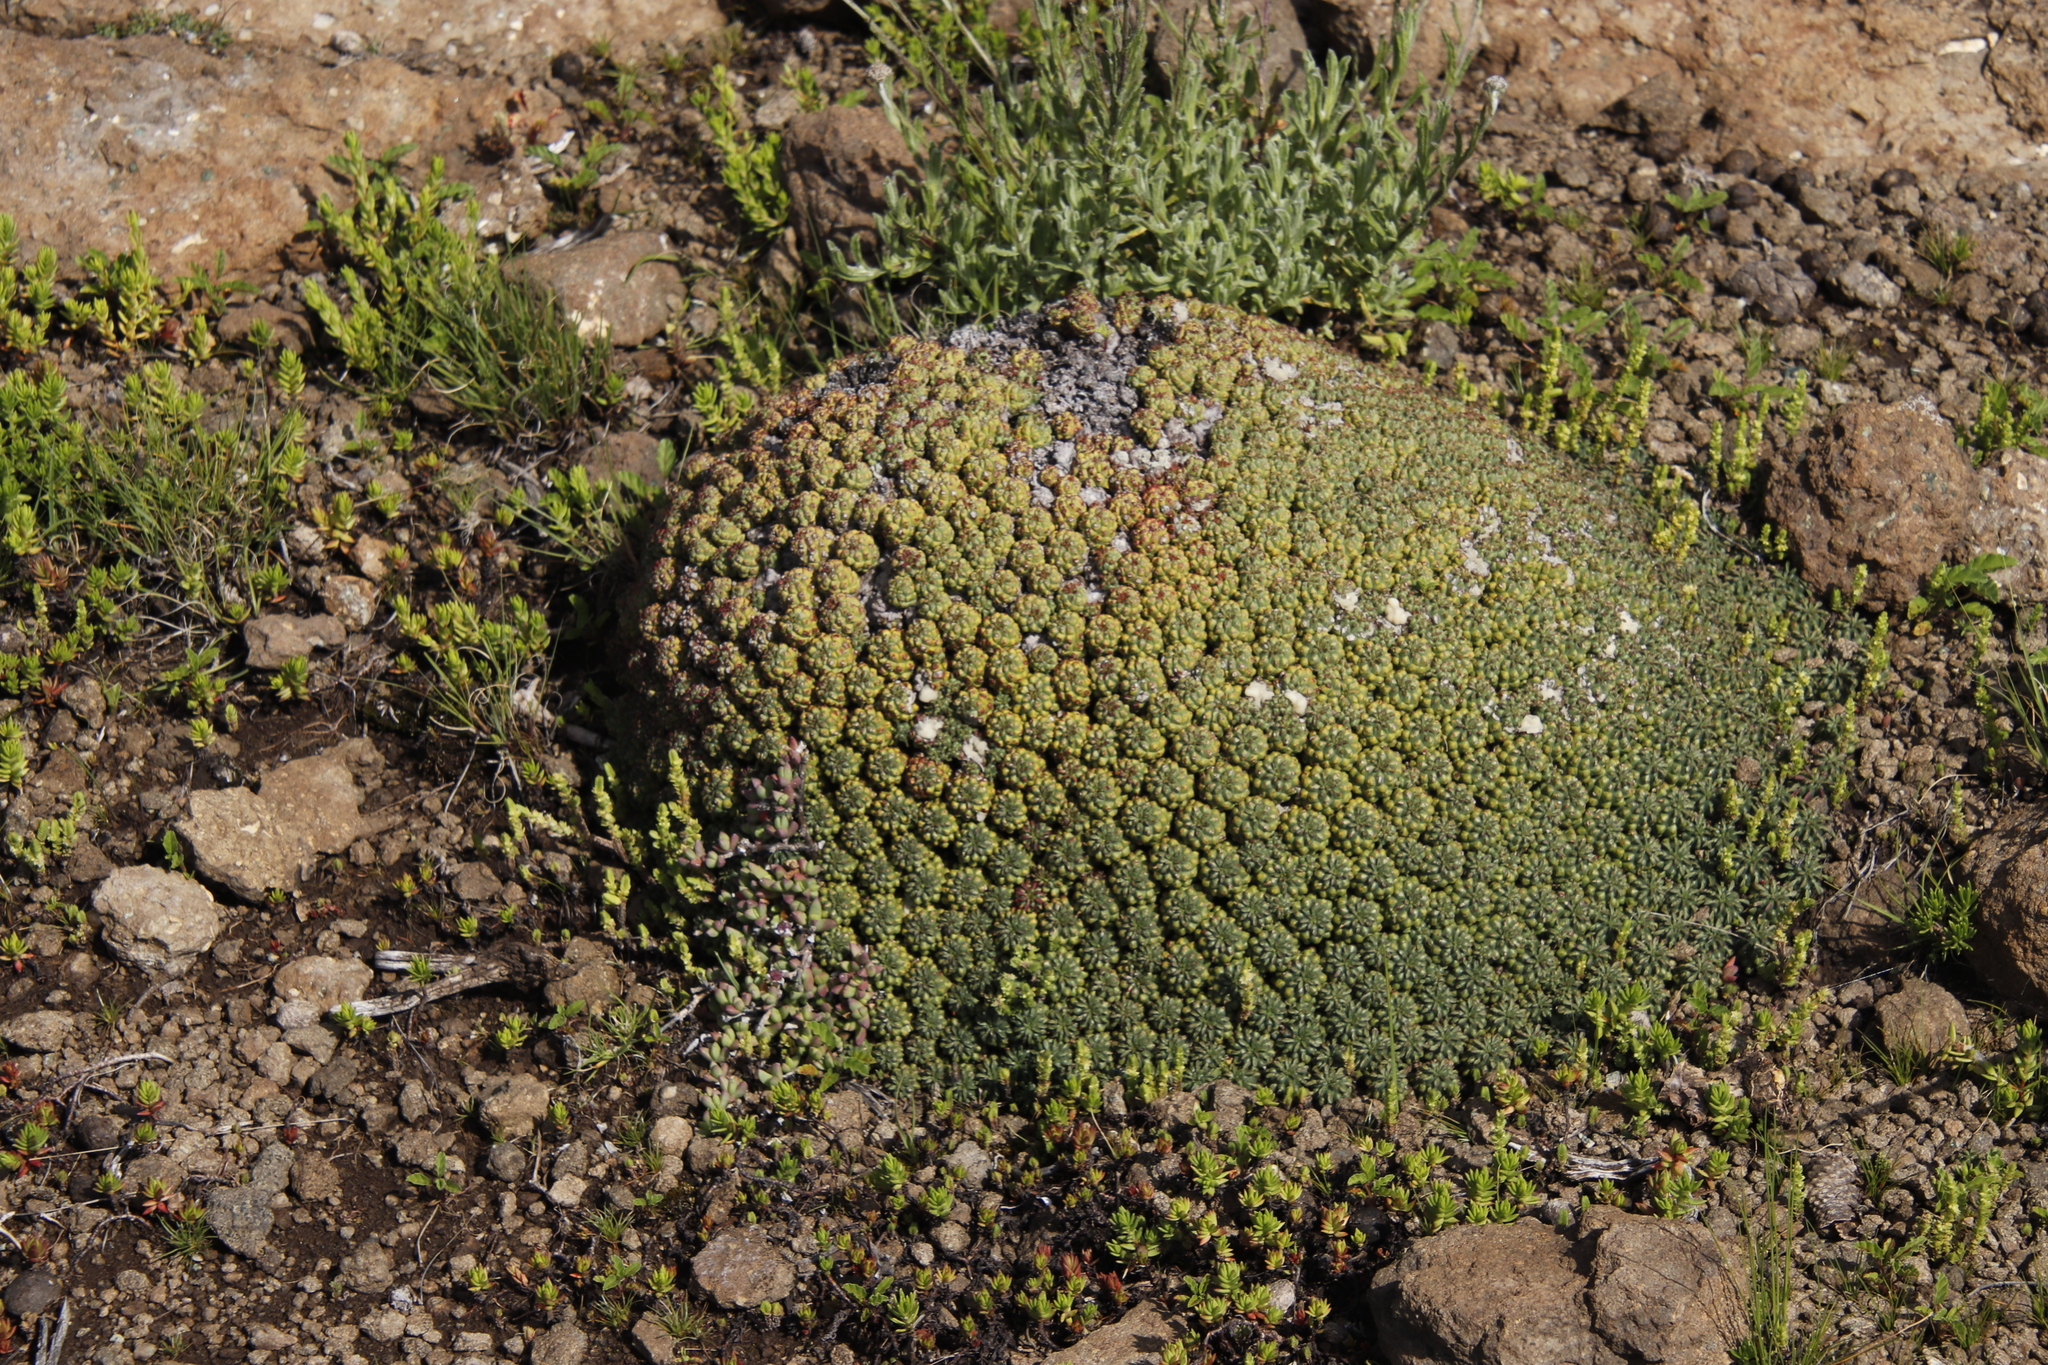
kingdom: Plantae
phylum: Tracheophyta
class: Magnoliopsida
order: Malpighiales
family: Euphorbiaceae
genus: Euphorbia
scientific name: Euphorbia clavarioides
